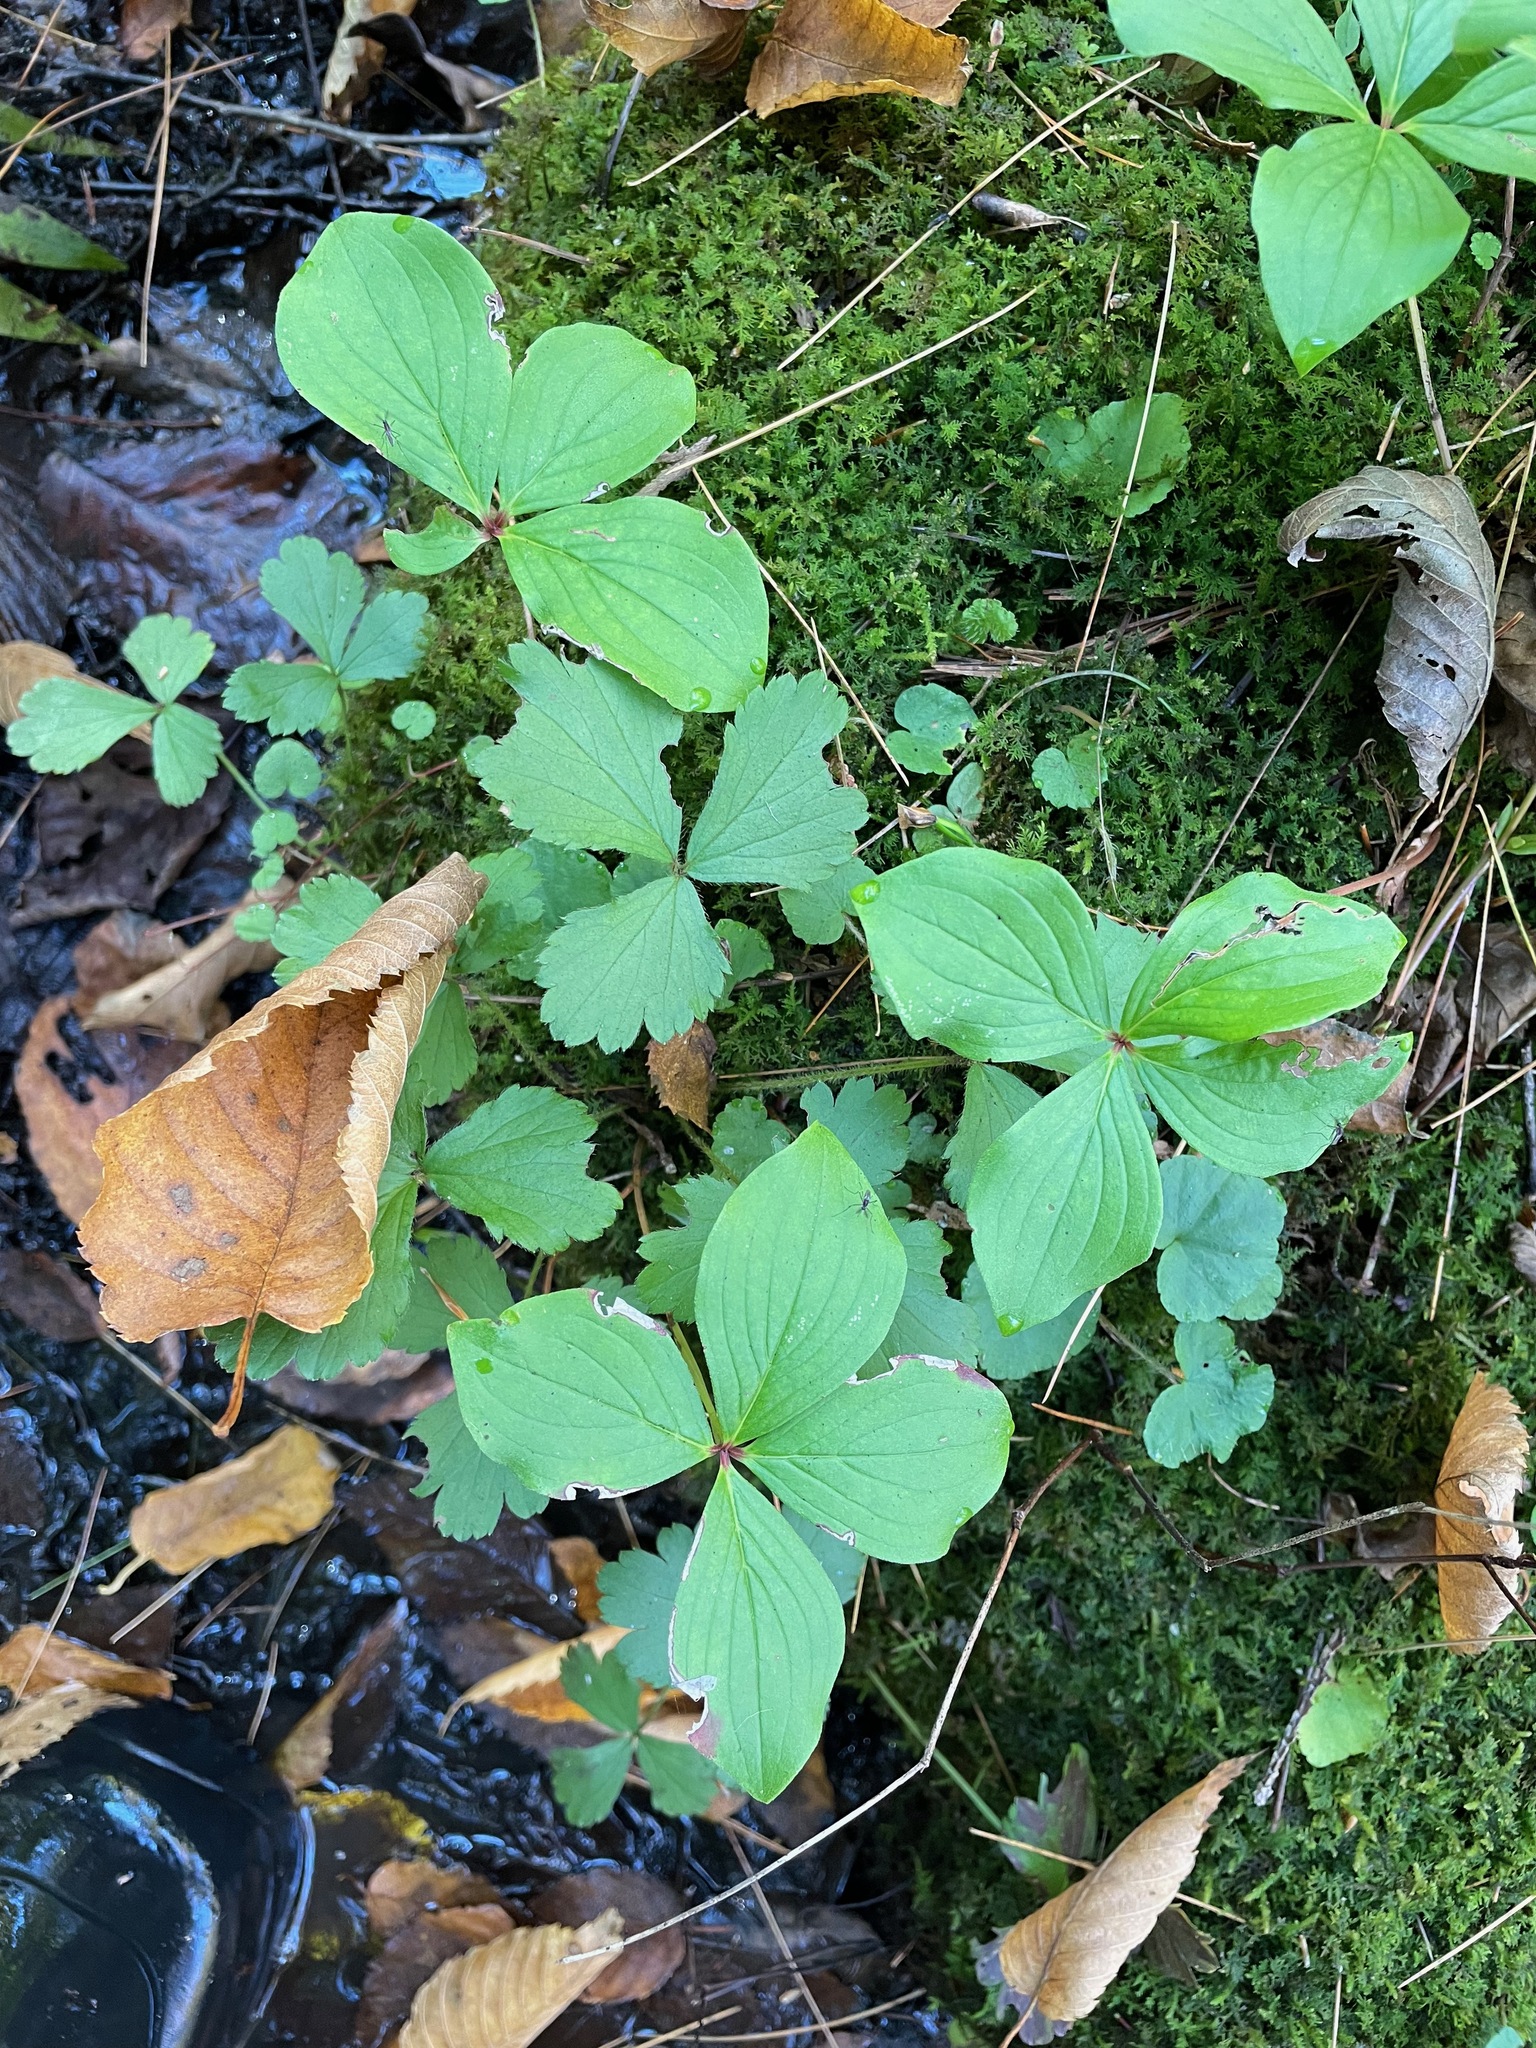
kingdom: Plantae
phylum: Tracheophyta
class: Magnoliopsida
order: Cornales
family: Cornaceae
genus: Cornus
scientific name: Cornus canadensis
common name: Creeping dogwood
